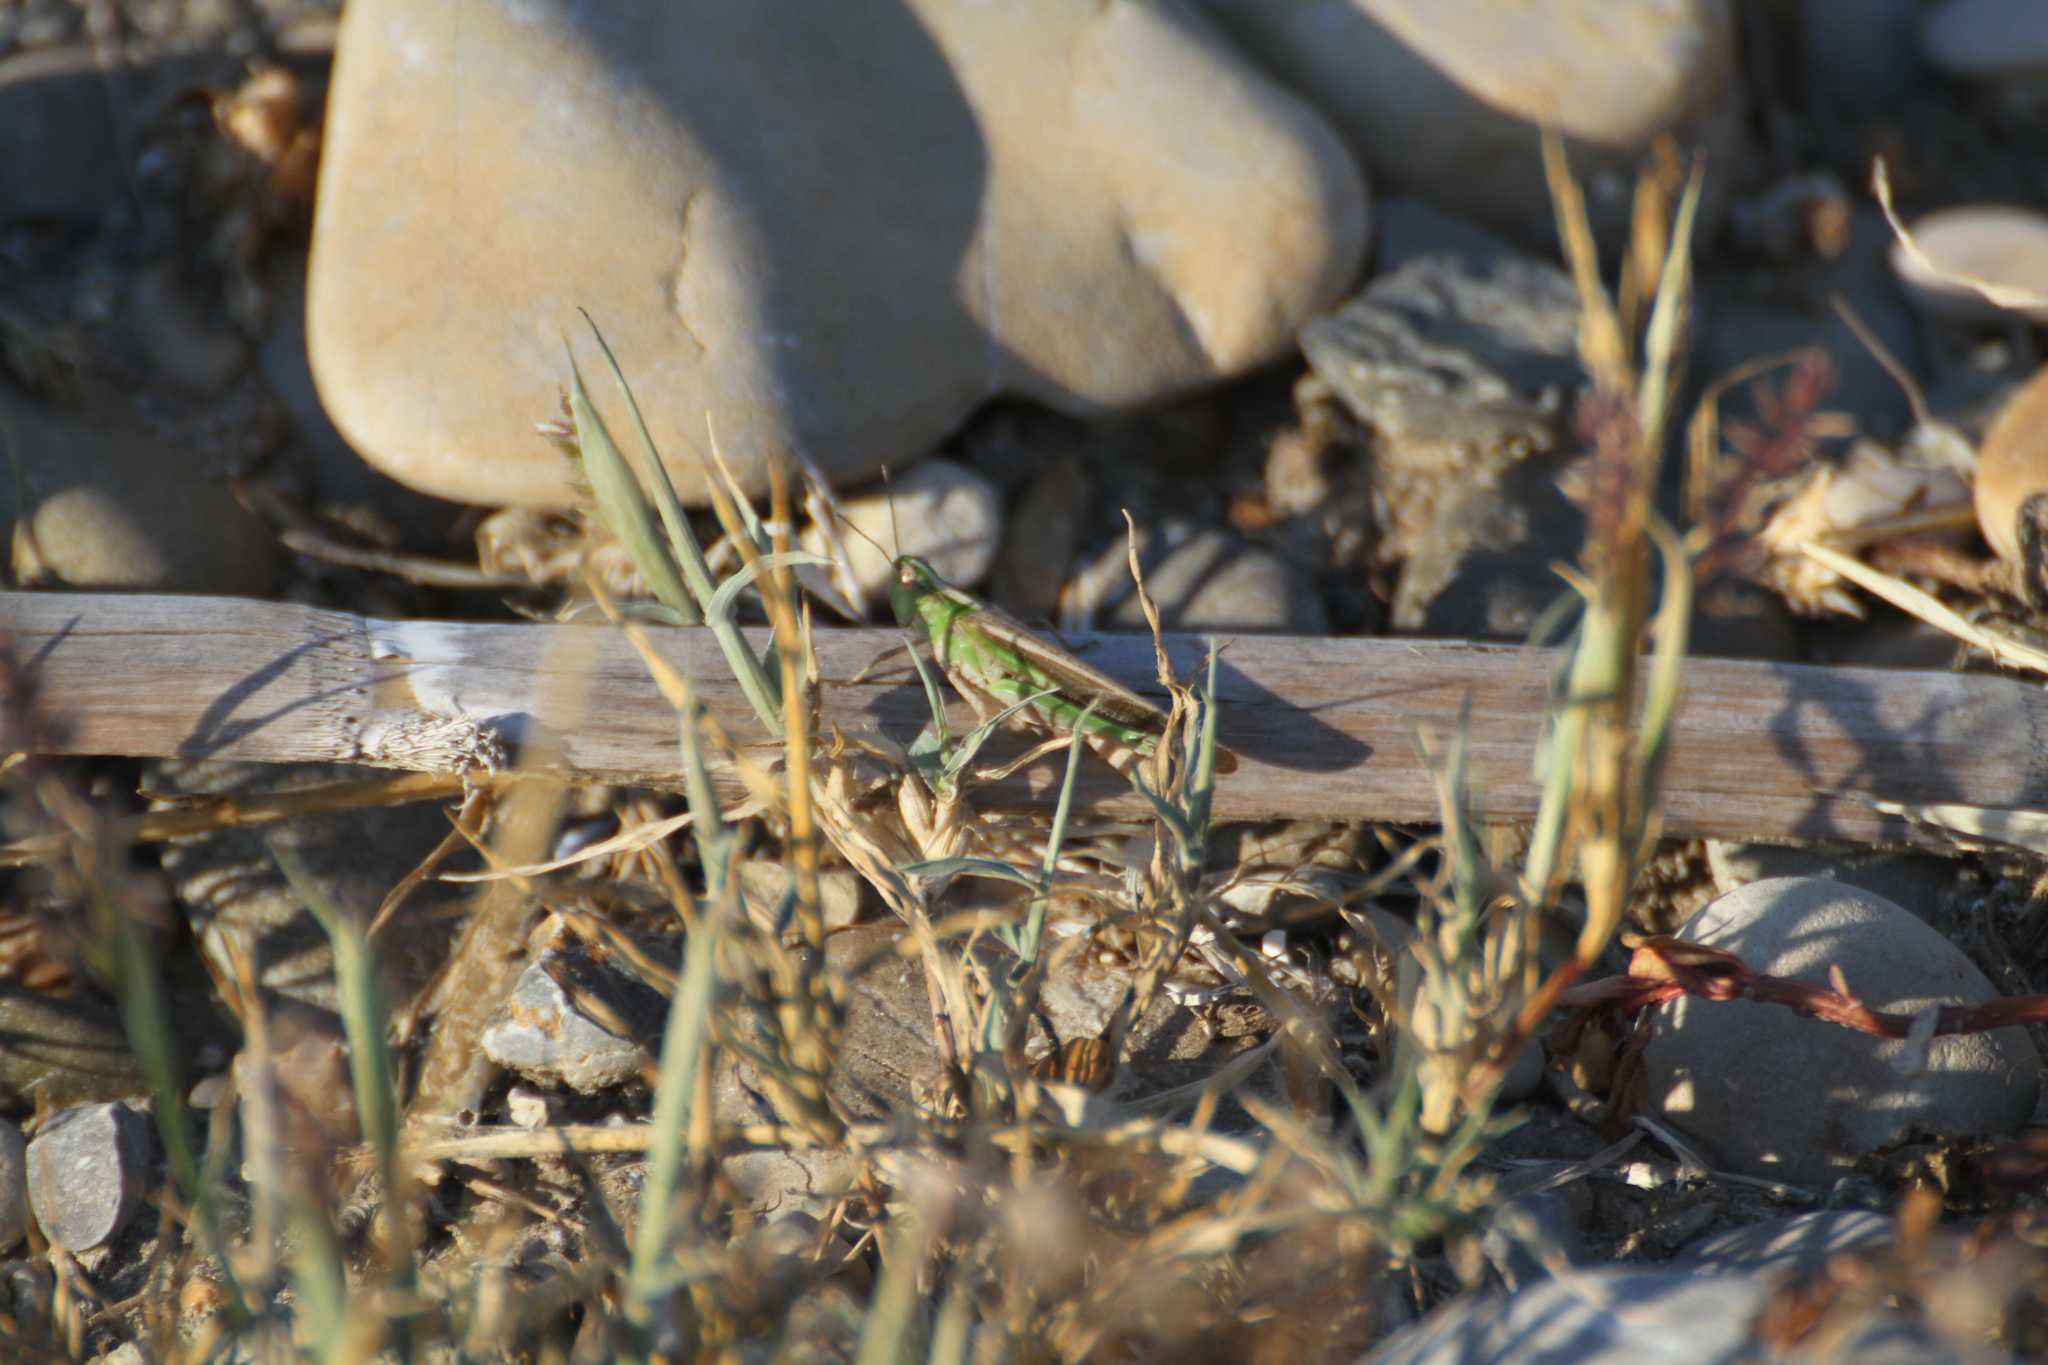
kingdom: Animalia
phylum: Arthropoda
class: Insecta
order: Orthoptera
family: Acrididae
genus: Aiolopus
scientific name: Aiolopus puissanti
